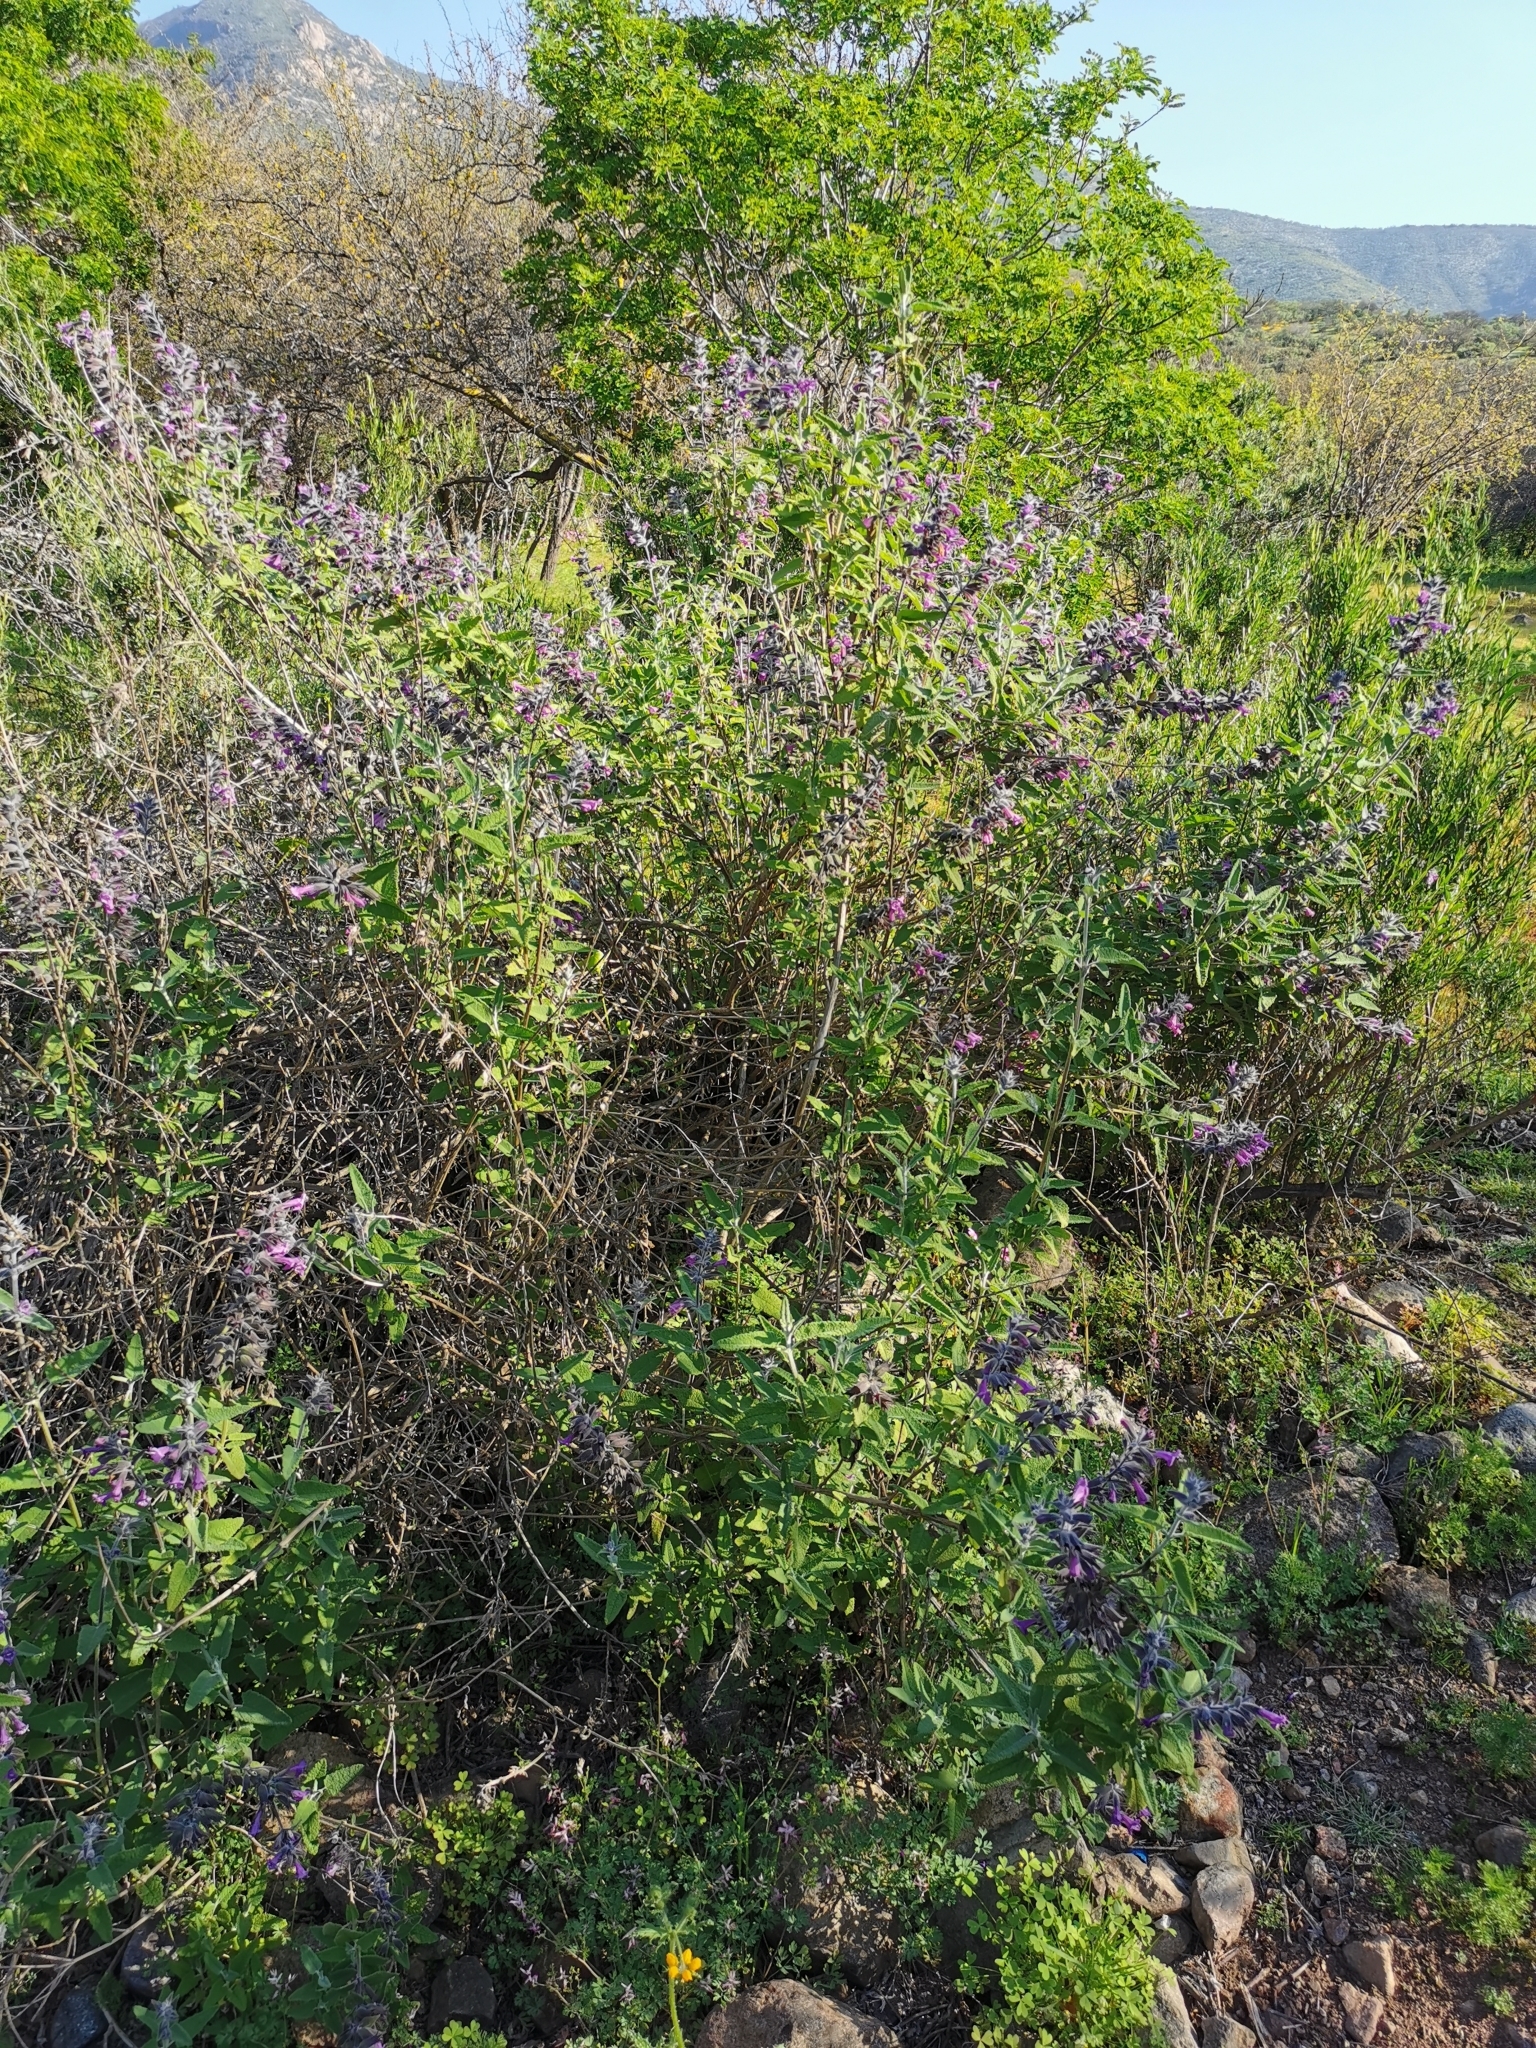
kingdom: Plantae
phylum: Tracheophyta
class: Magnoliopsida
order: Lamiales
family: Lamiaceae
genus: Lepechinia
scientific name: Lepechinia salviae
